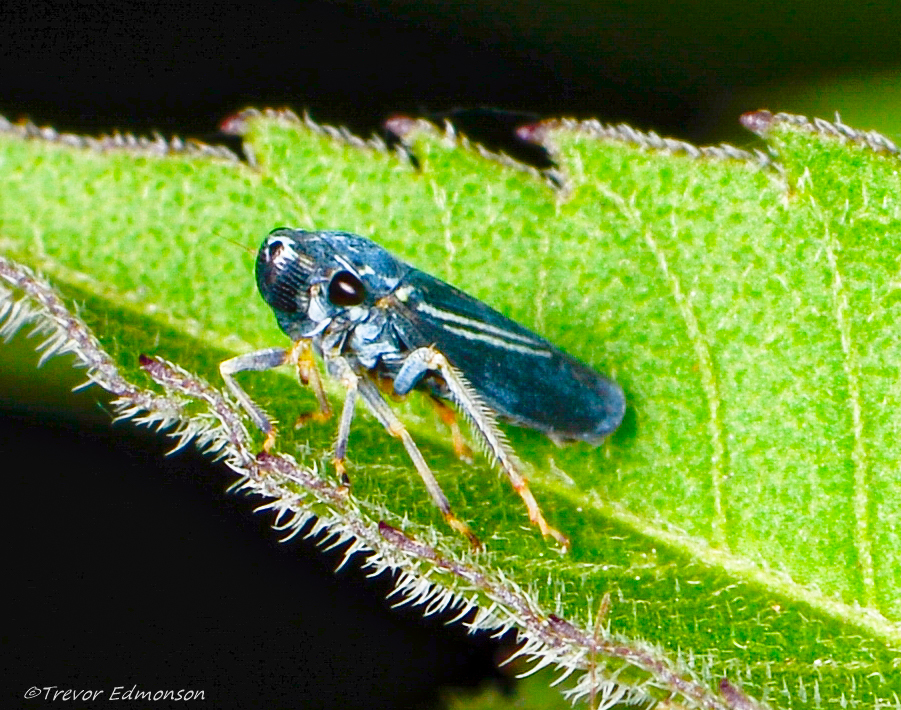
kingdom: Animalia
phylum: Arthropoda
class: Insecta
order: Hemiptera
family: Cicadellidae
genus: Neokolla
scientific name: Neokolla hieroglyphica
